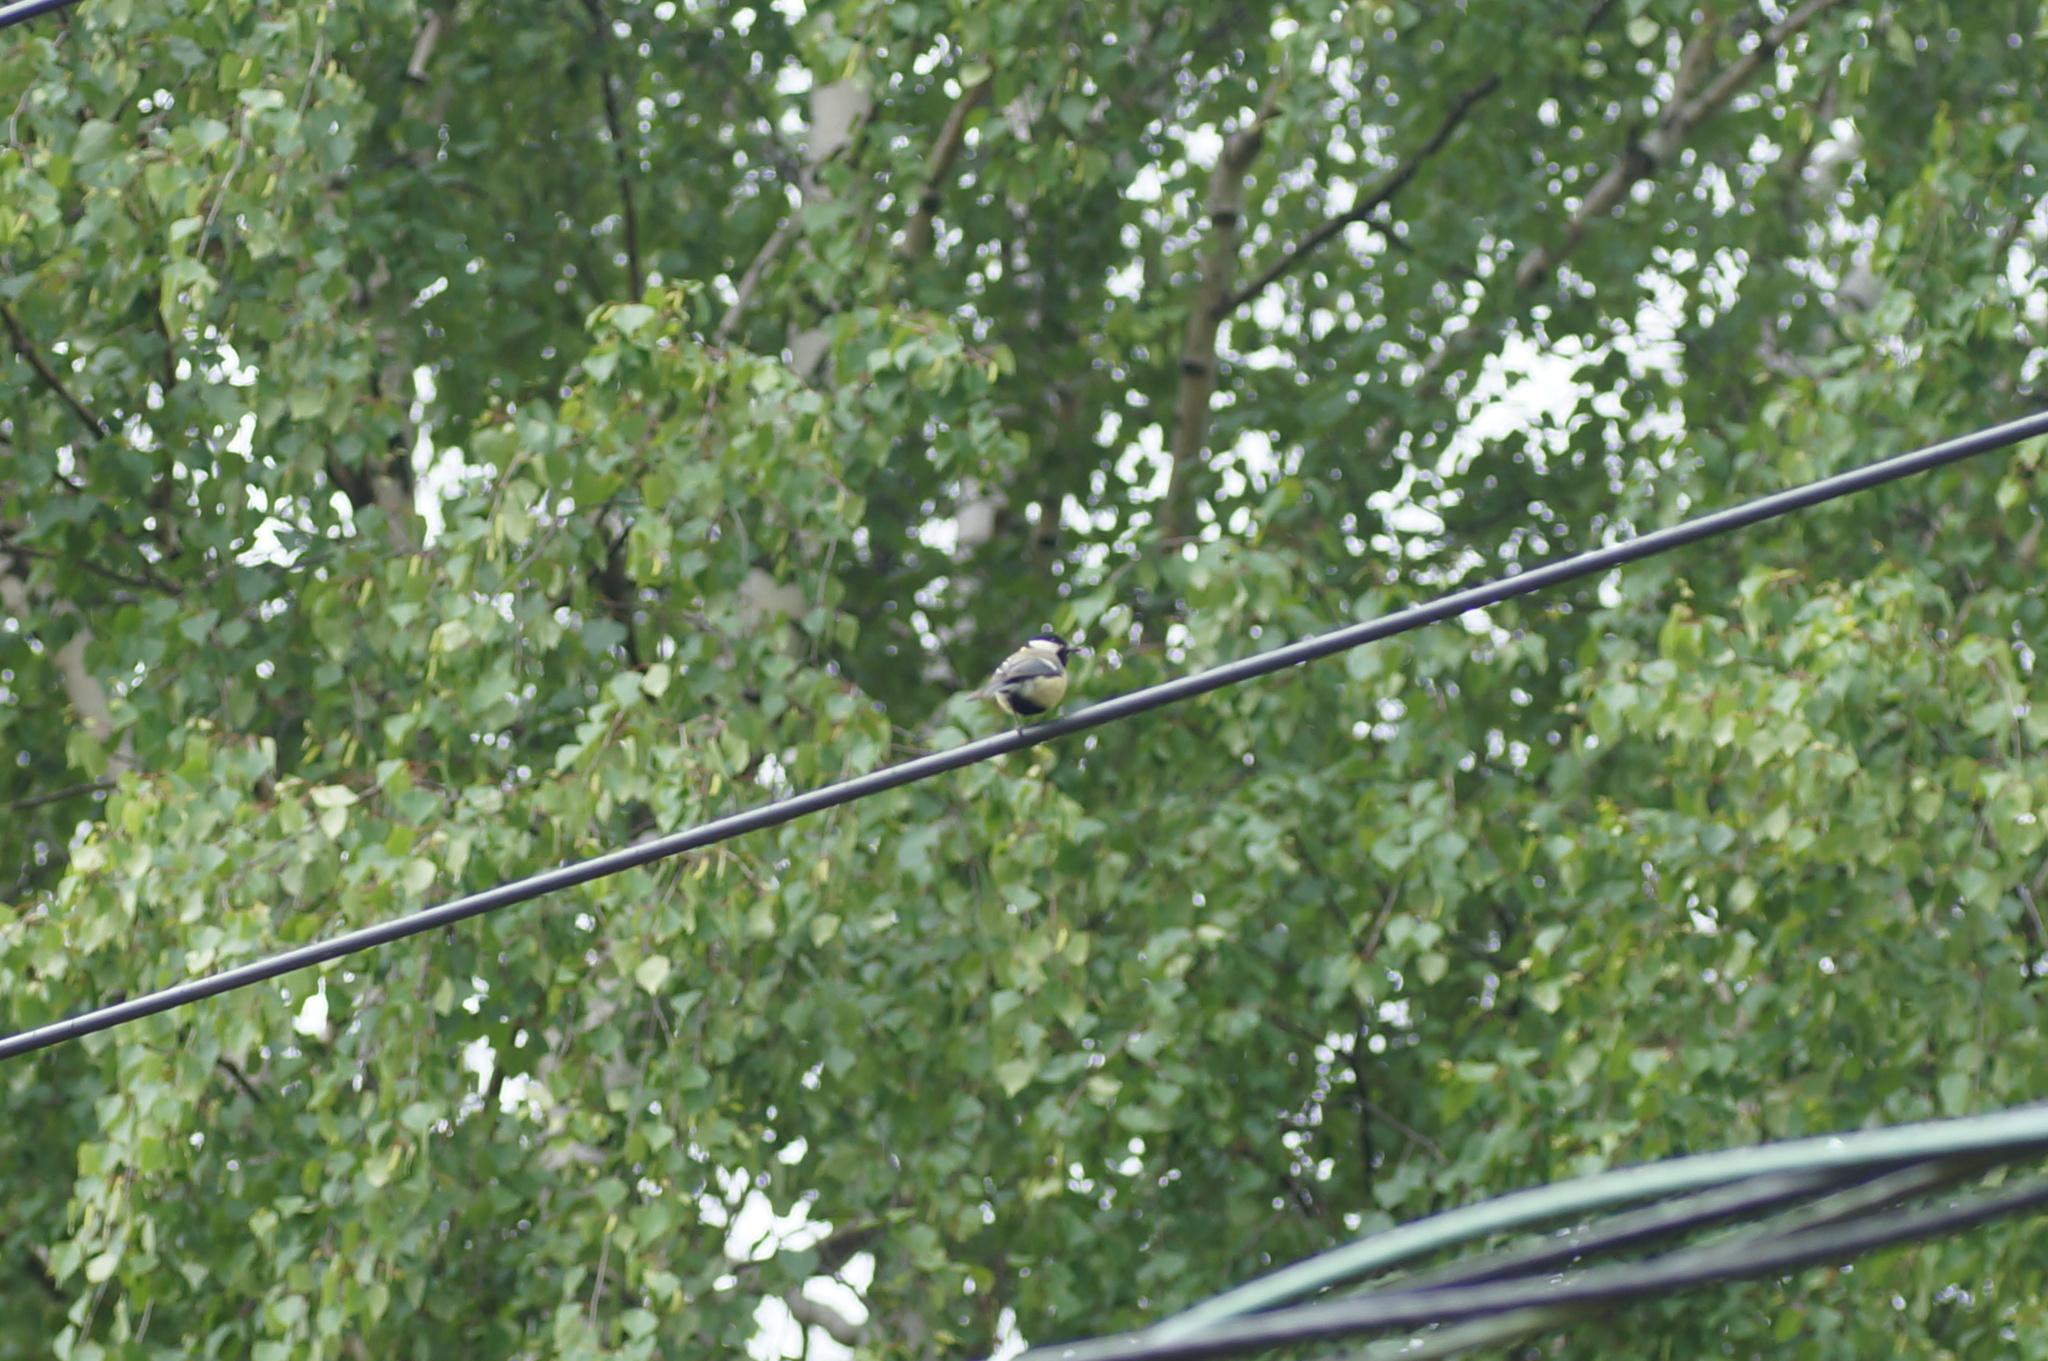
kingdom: Animalia
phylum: Chordata
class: Aves
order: Passeriformes
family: Paridae
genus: Parus
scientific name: Parus major
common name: Great tit
